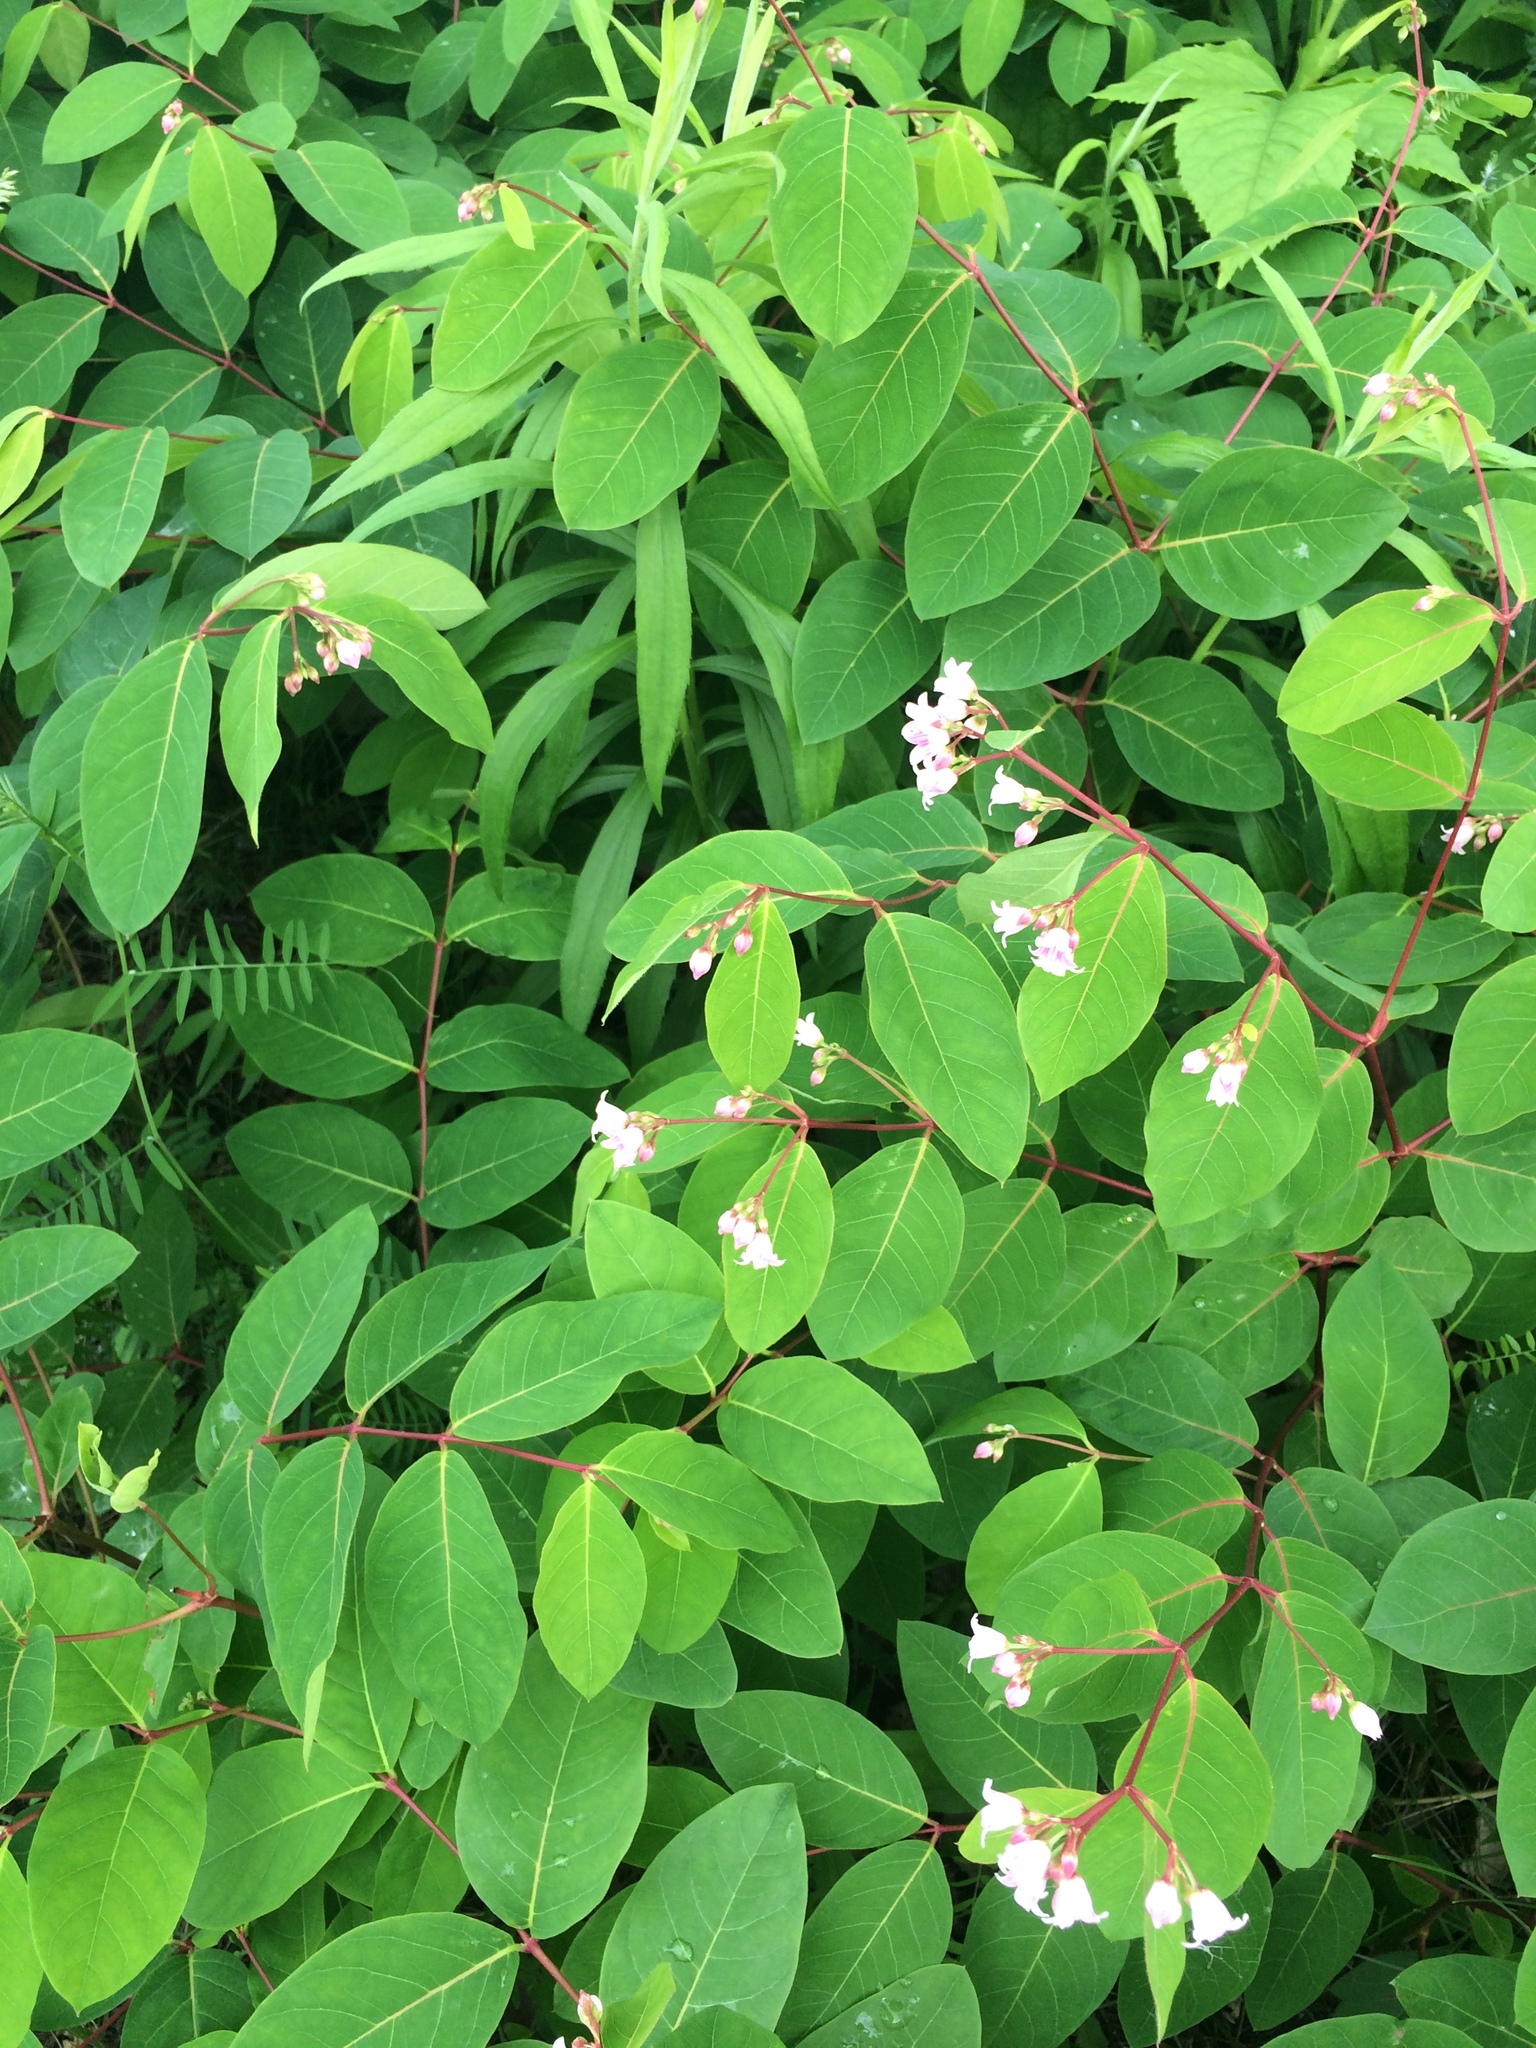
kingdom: Plantae
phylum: Tracheophyta
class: Magnoliopsida
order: Gentianales
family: Apocynaceae
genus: Apocynum
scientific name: Apocynum androsaemifolium
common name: Spreading dogbane
